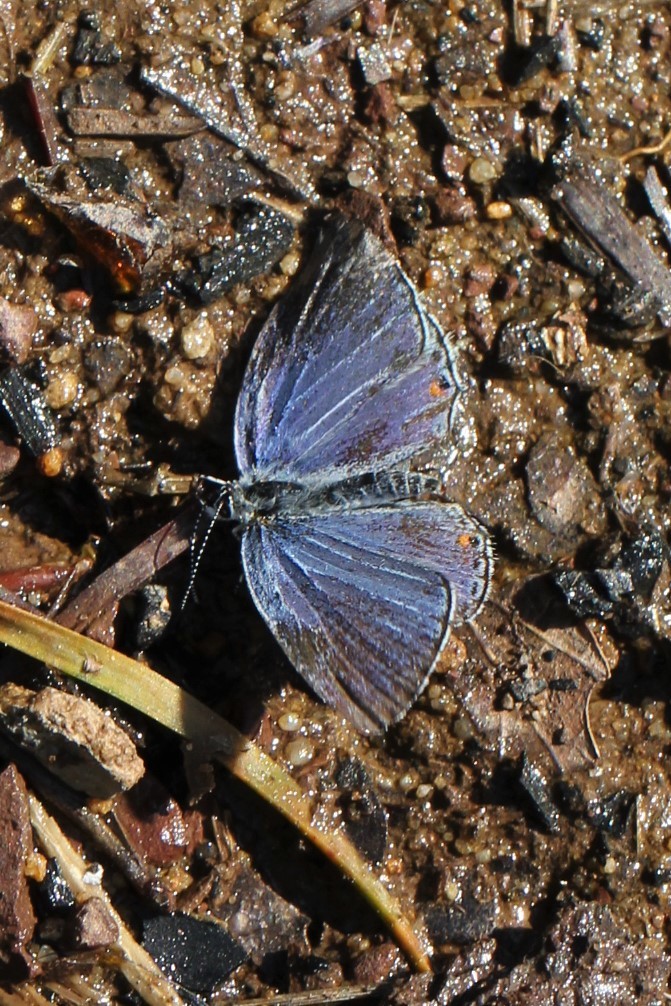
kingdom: Animalia
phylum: Arthropoda
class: Insecta
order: Lepidoptera
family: Lycaenidae
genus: Elkalyce
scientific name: Elkalyce comyntas
